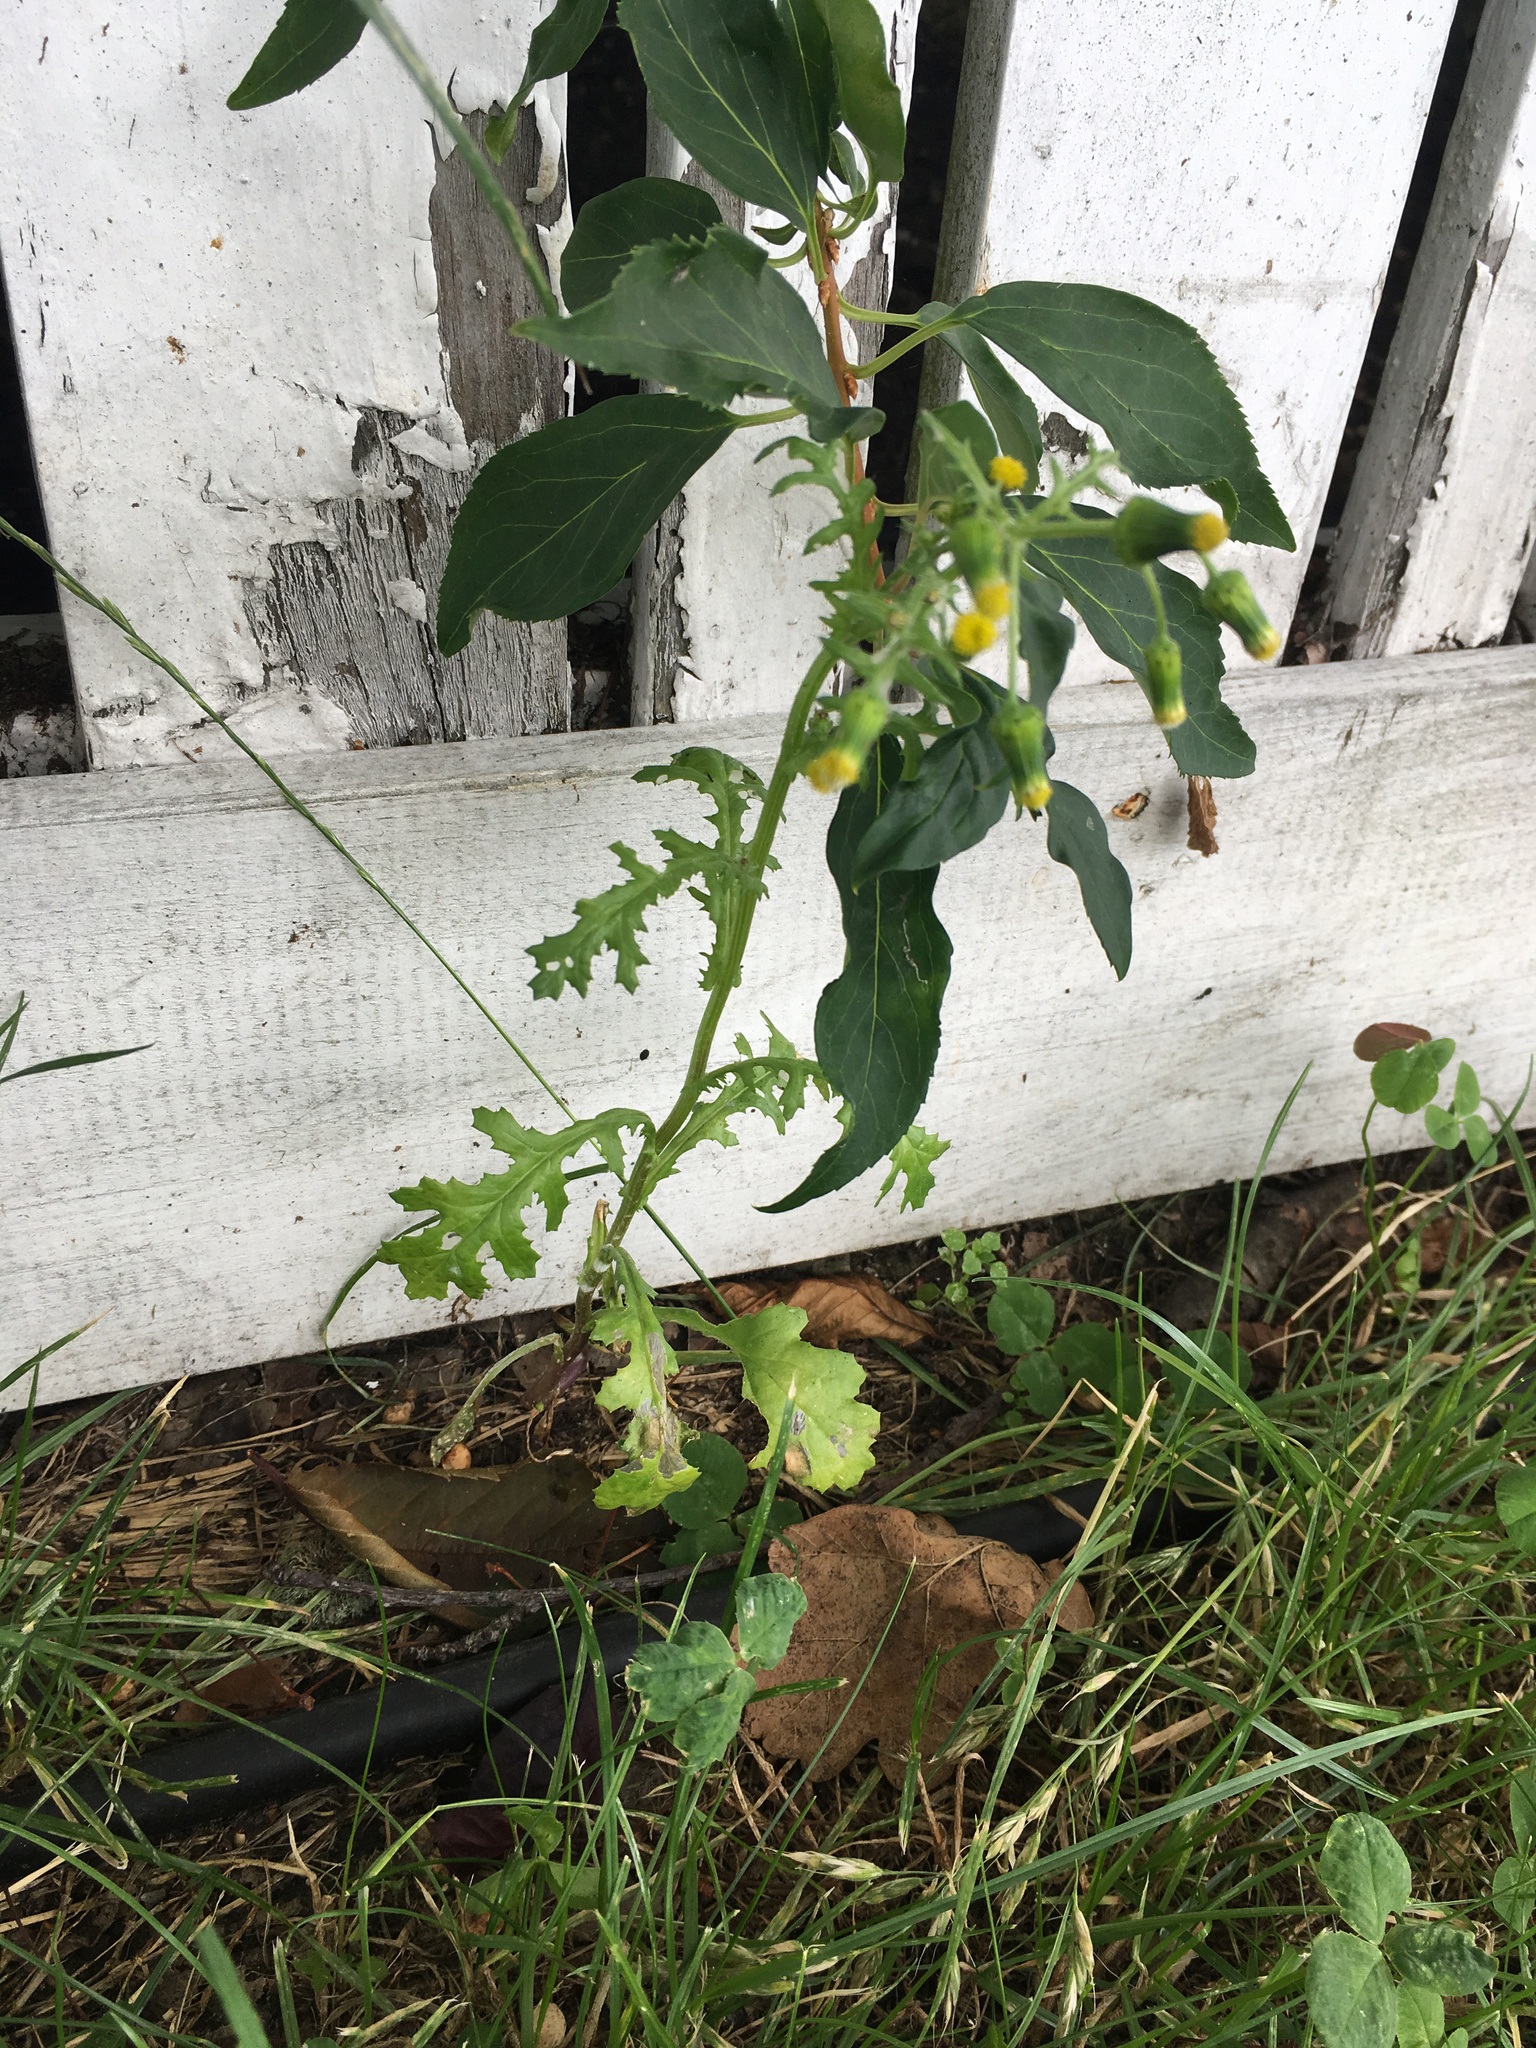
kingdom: Plantae
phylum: Tracheophyta
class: Magnoliopsida
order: Asterales
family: Asteraceae
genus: Senecio
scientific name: Senecio vulgaris
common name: Old-man-in-the-spring
